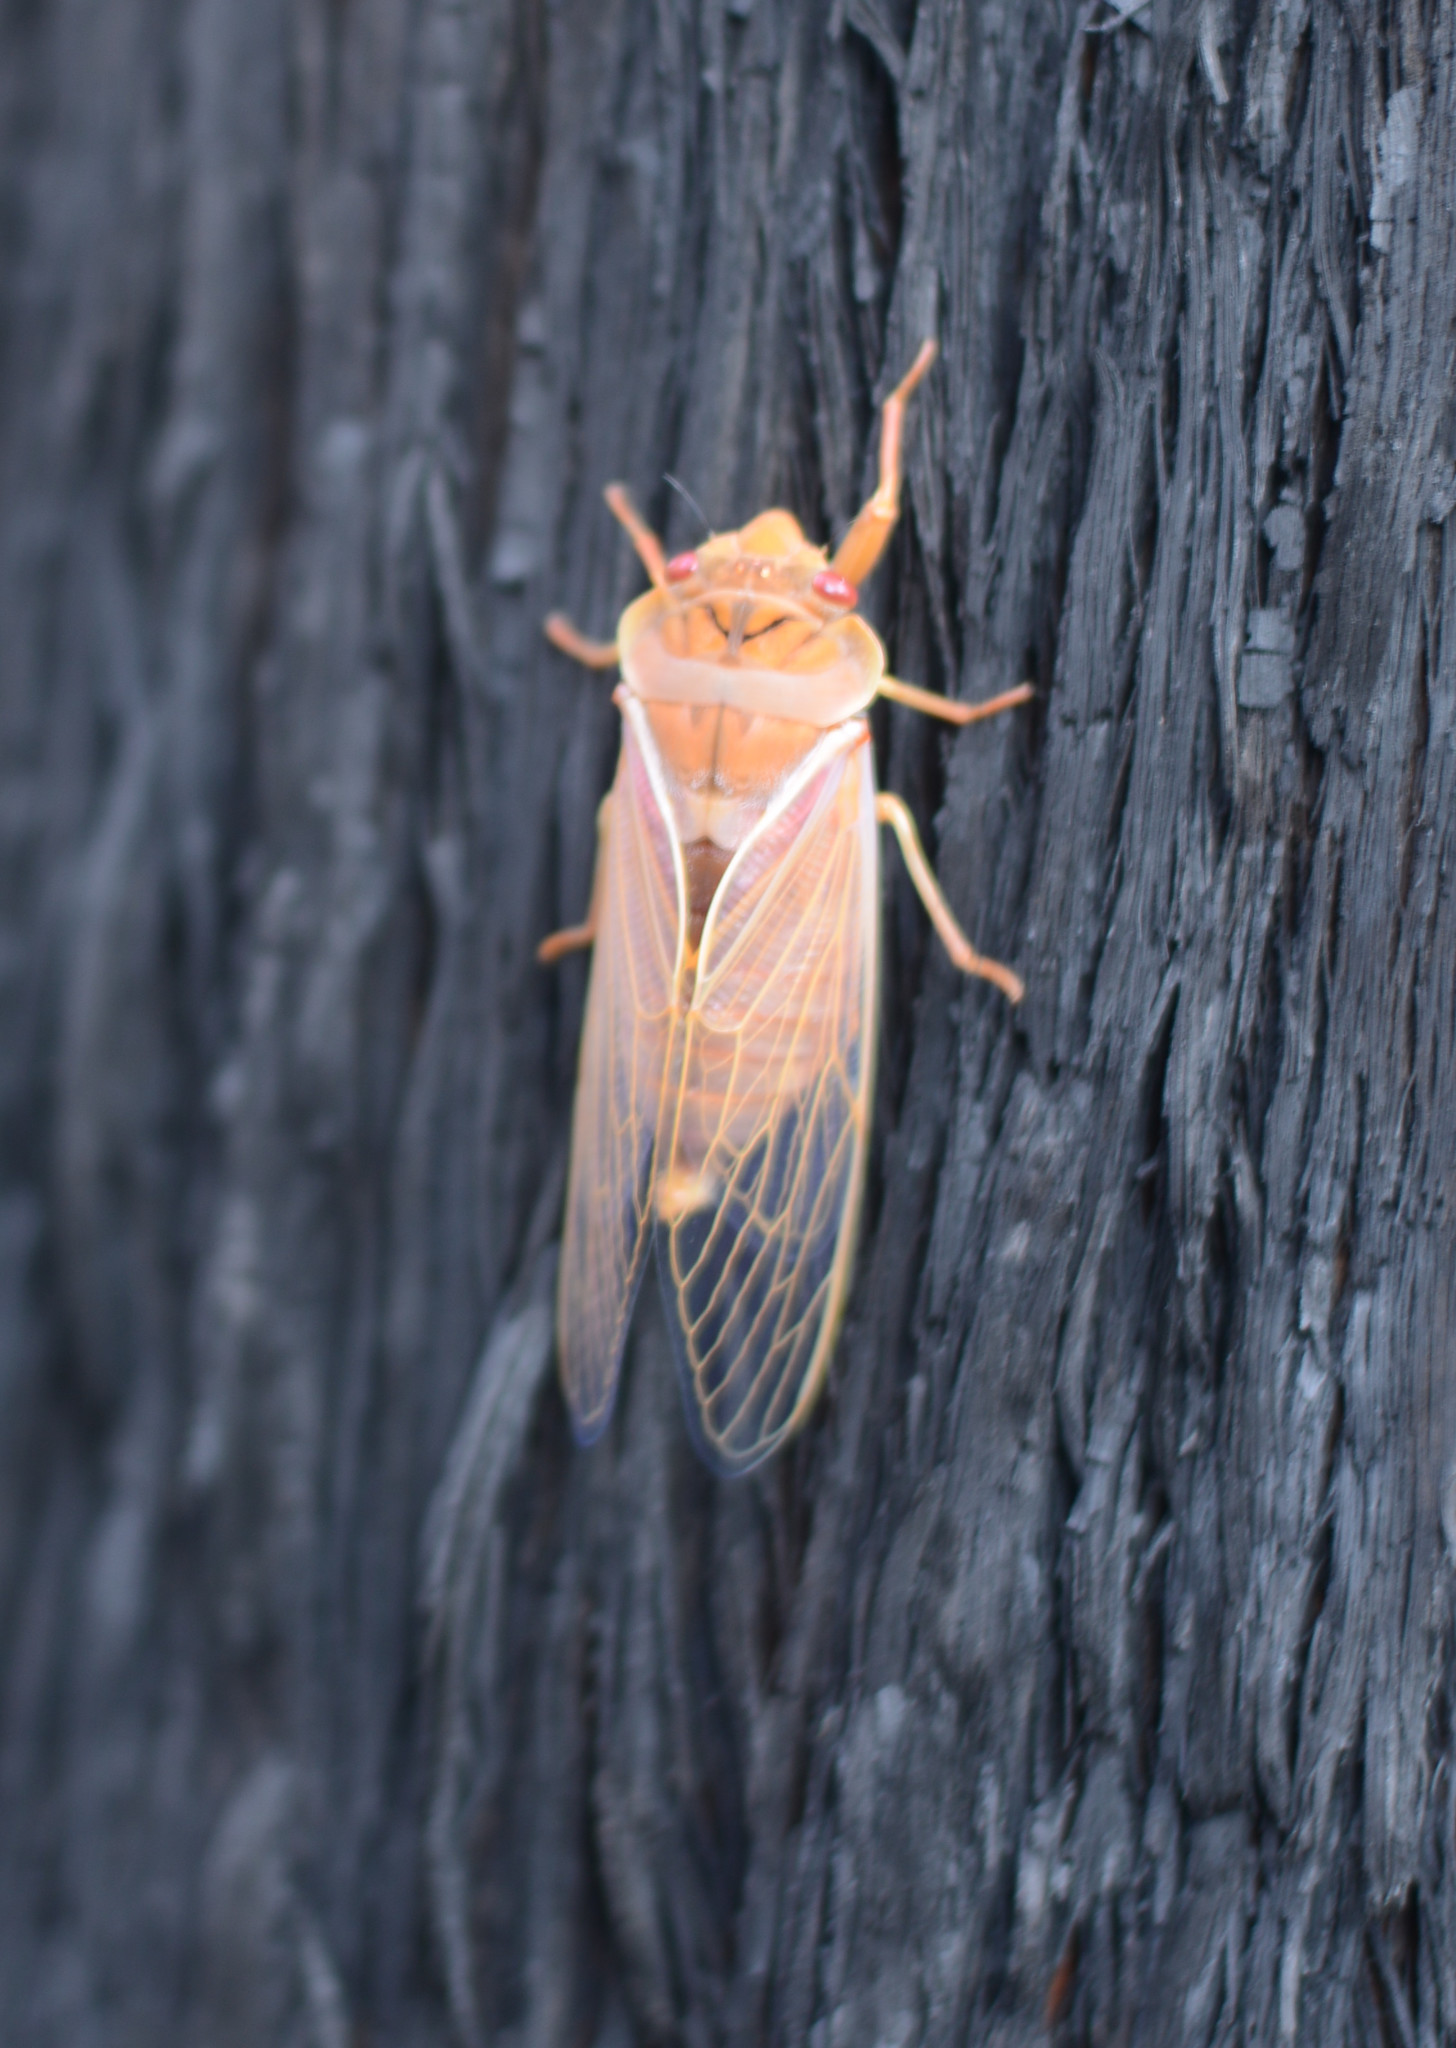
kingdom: Animalia
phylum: Arthropoda
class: Insecta
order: Hemiptera
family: Cicadidae
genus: Cyclochila
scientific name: Cyclochila australasiae
